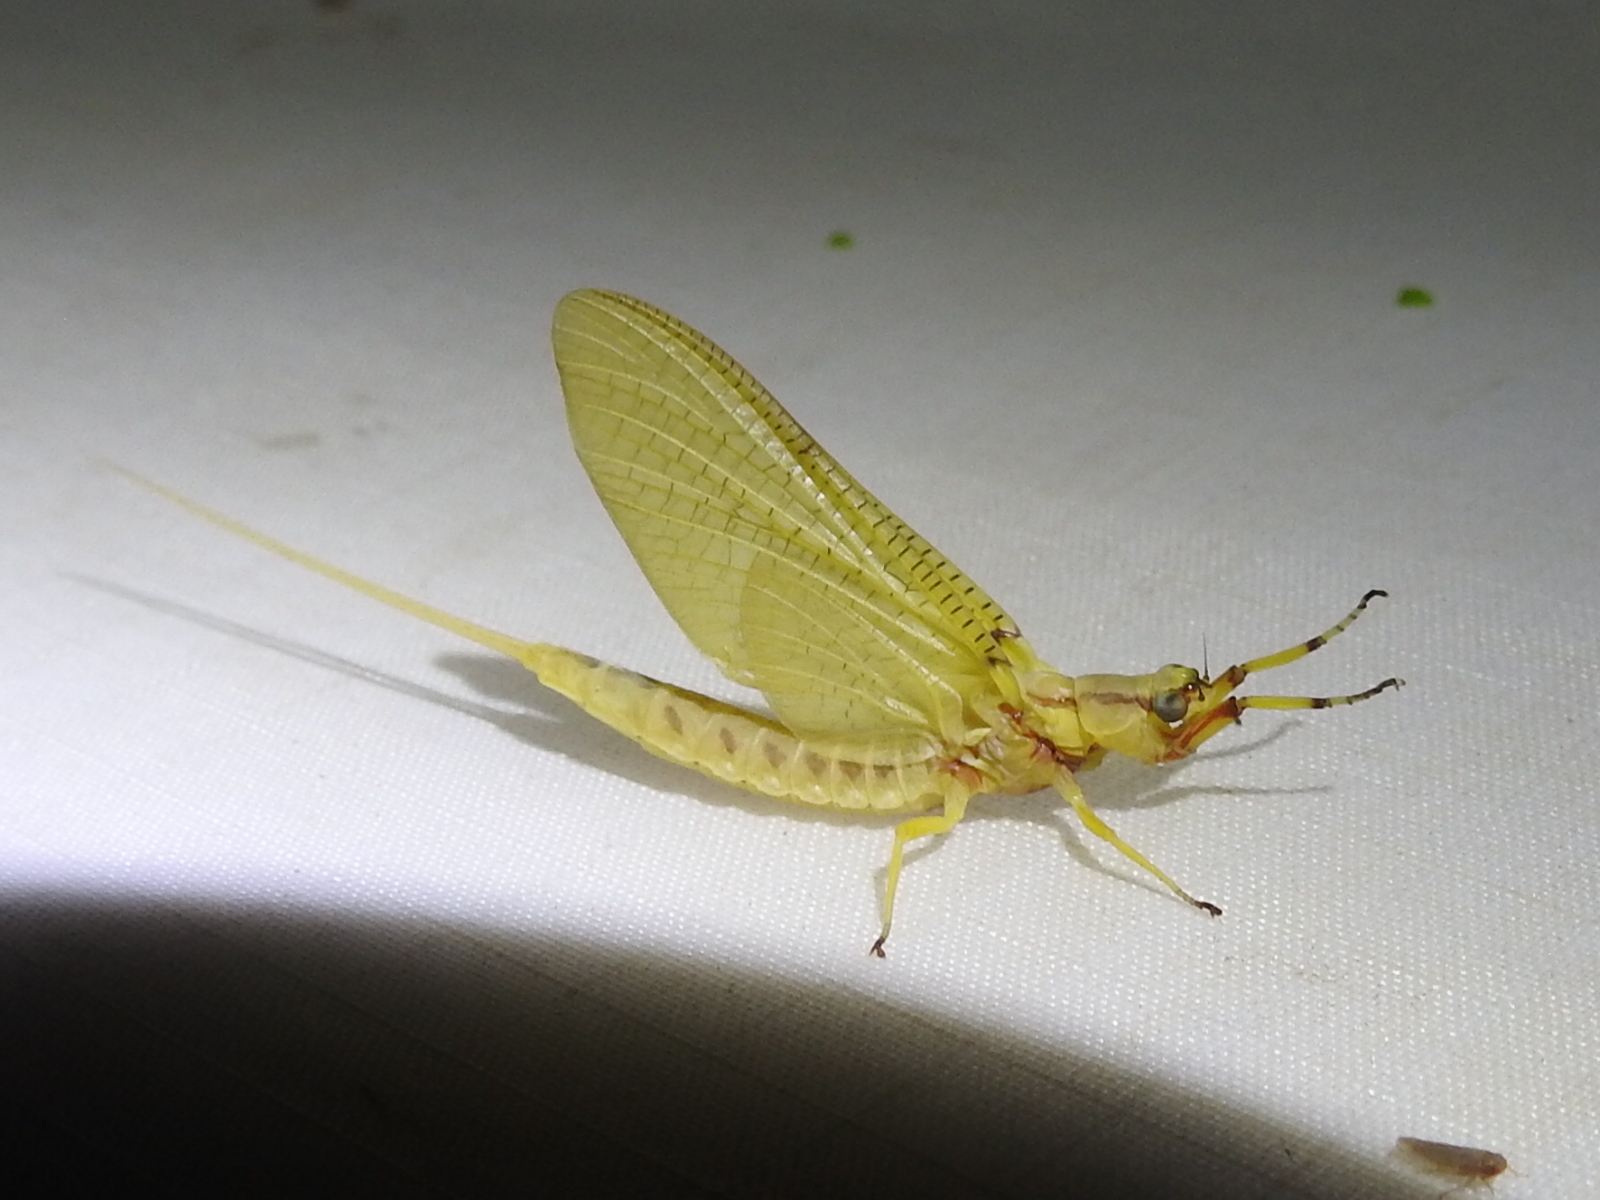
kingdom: Animalia
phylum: Arthropoda
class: Insecta
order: Ephemeroptera
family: Ephemeridae
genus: Hexagenia
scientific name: Hexagenia limbata
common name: Giant mayfly
